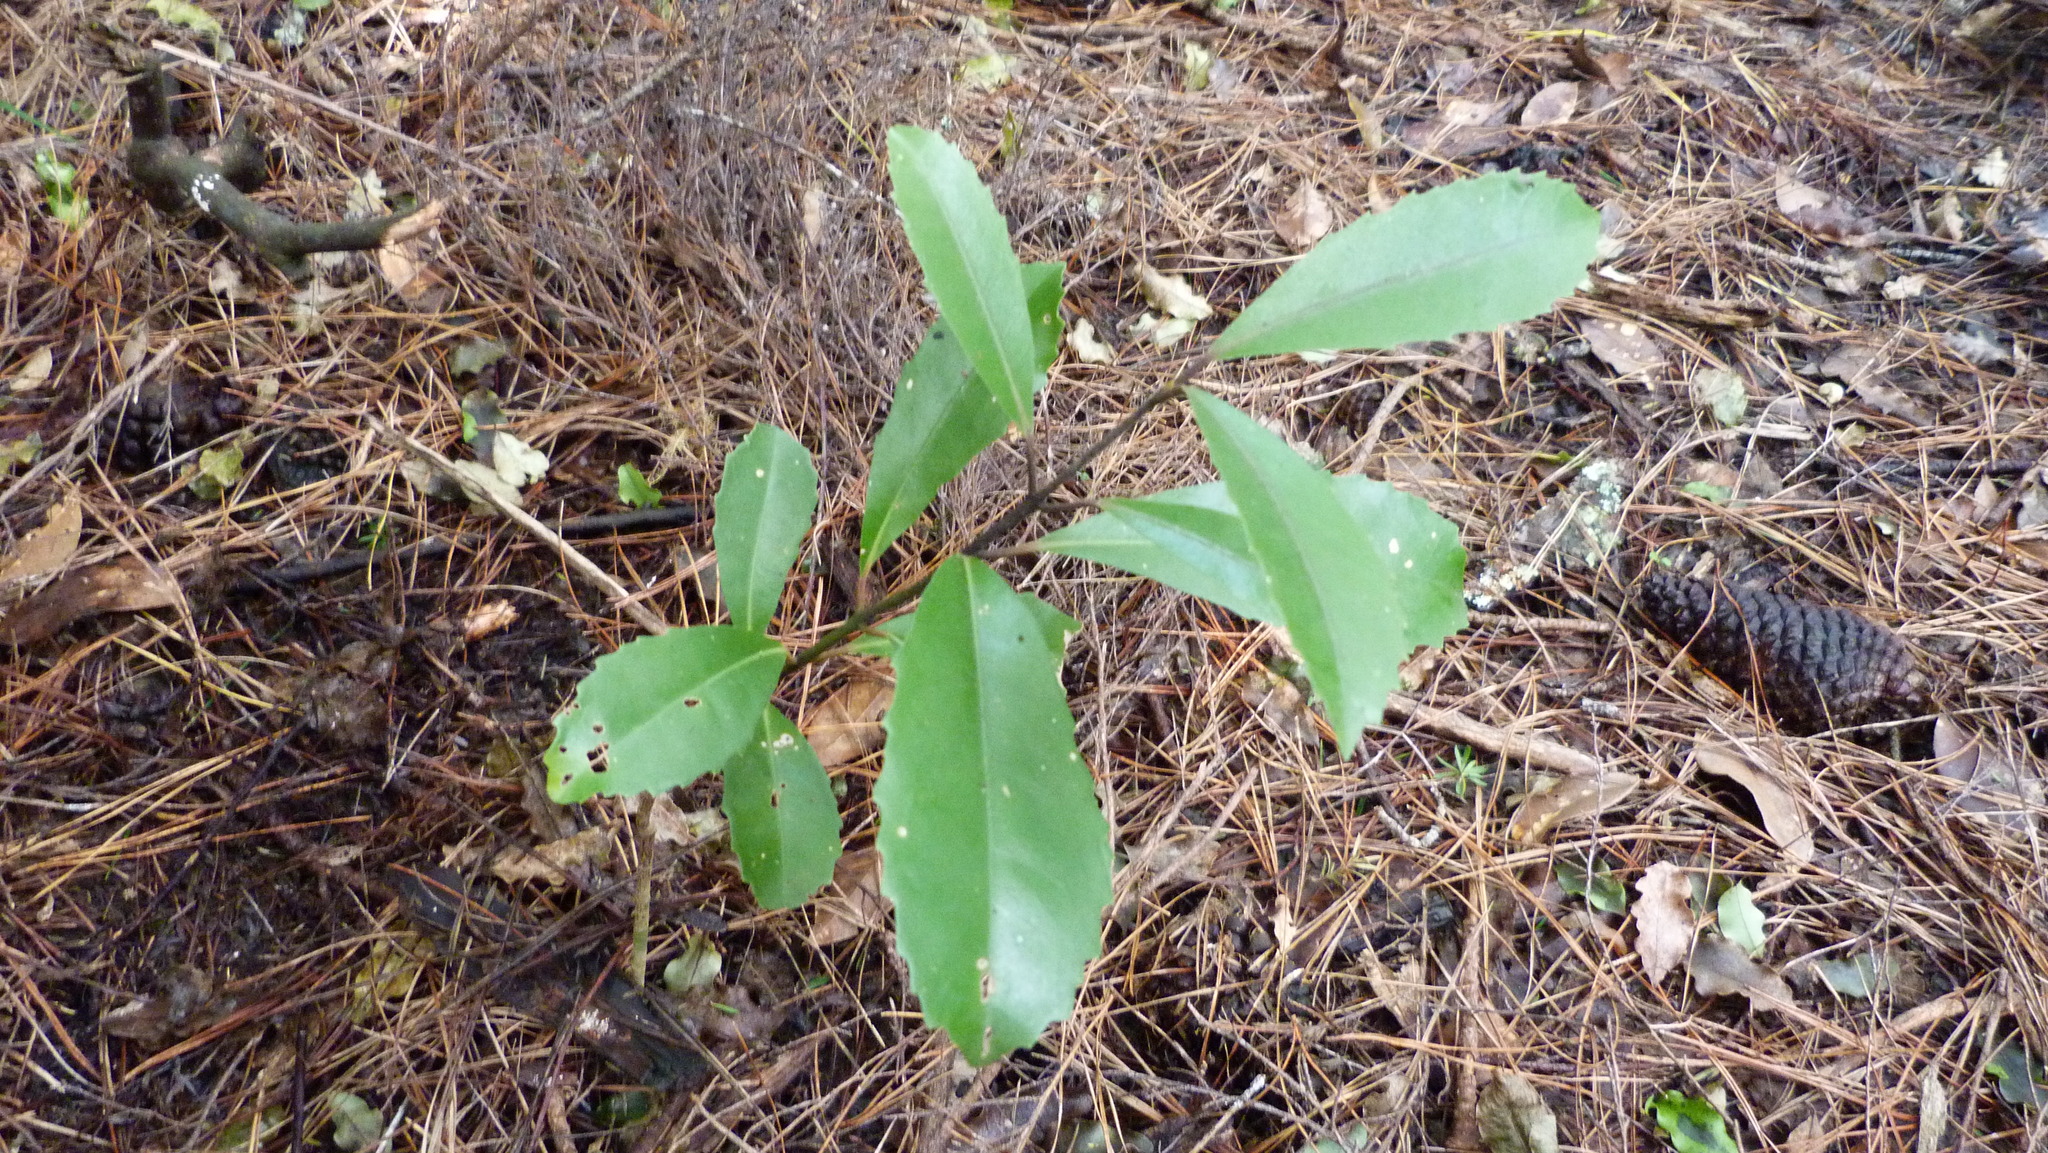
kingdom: Plantae
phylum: Tracheophyta
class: Magnoliopsida
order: Laurales
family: Monimiaceae
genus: Hedycarya
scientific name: Hedycarya arborea
